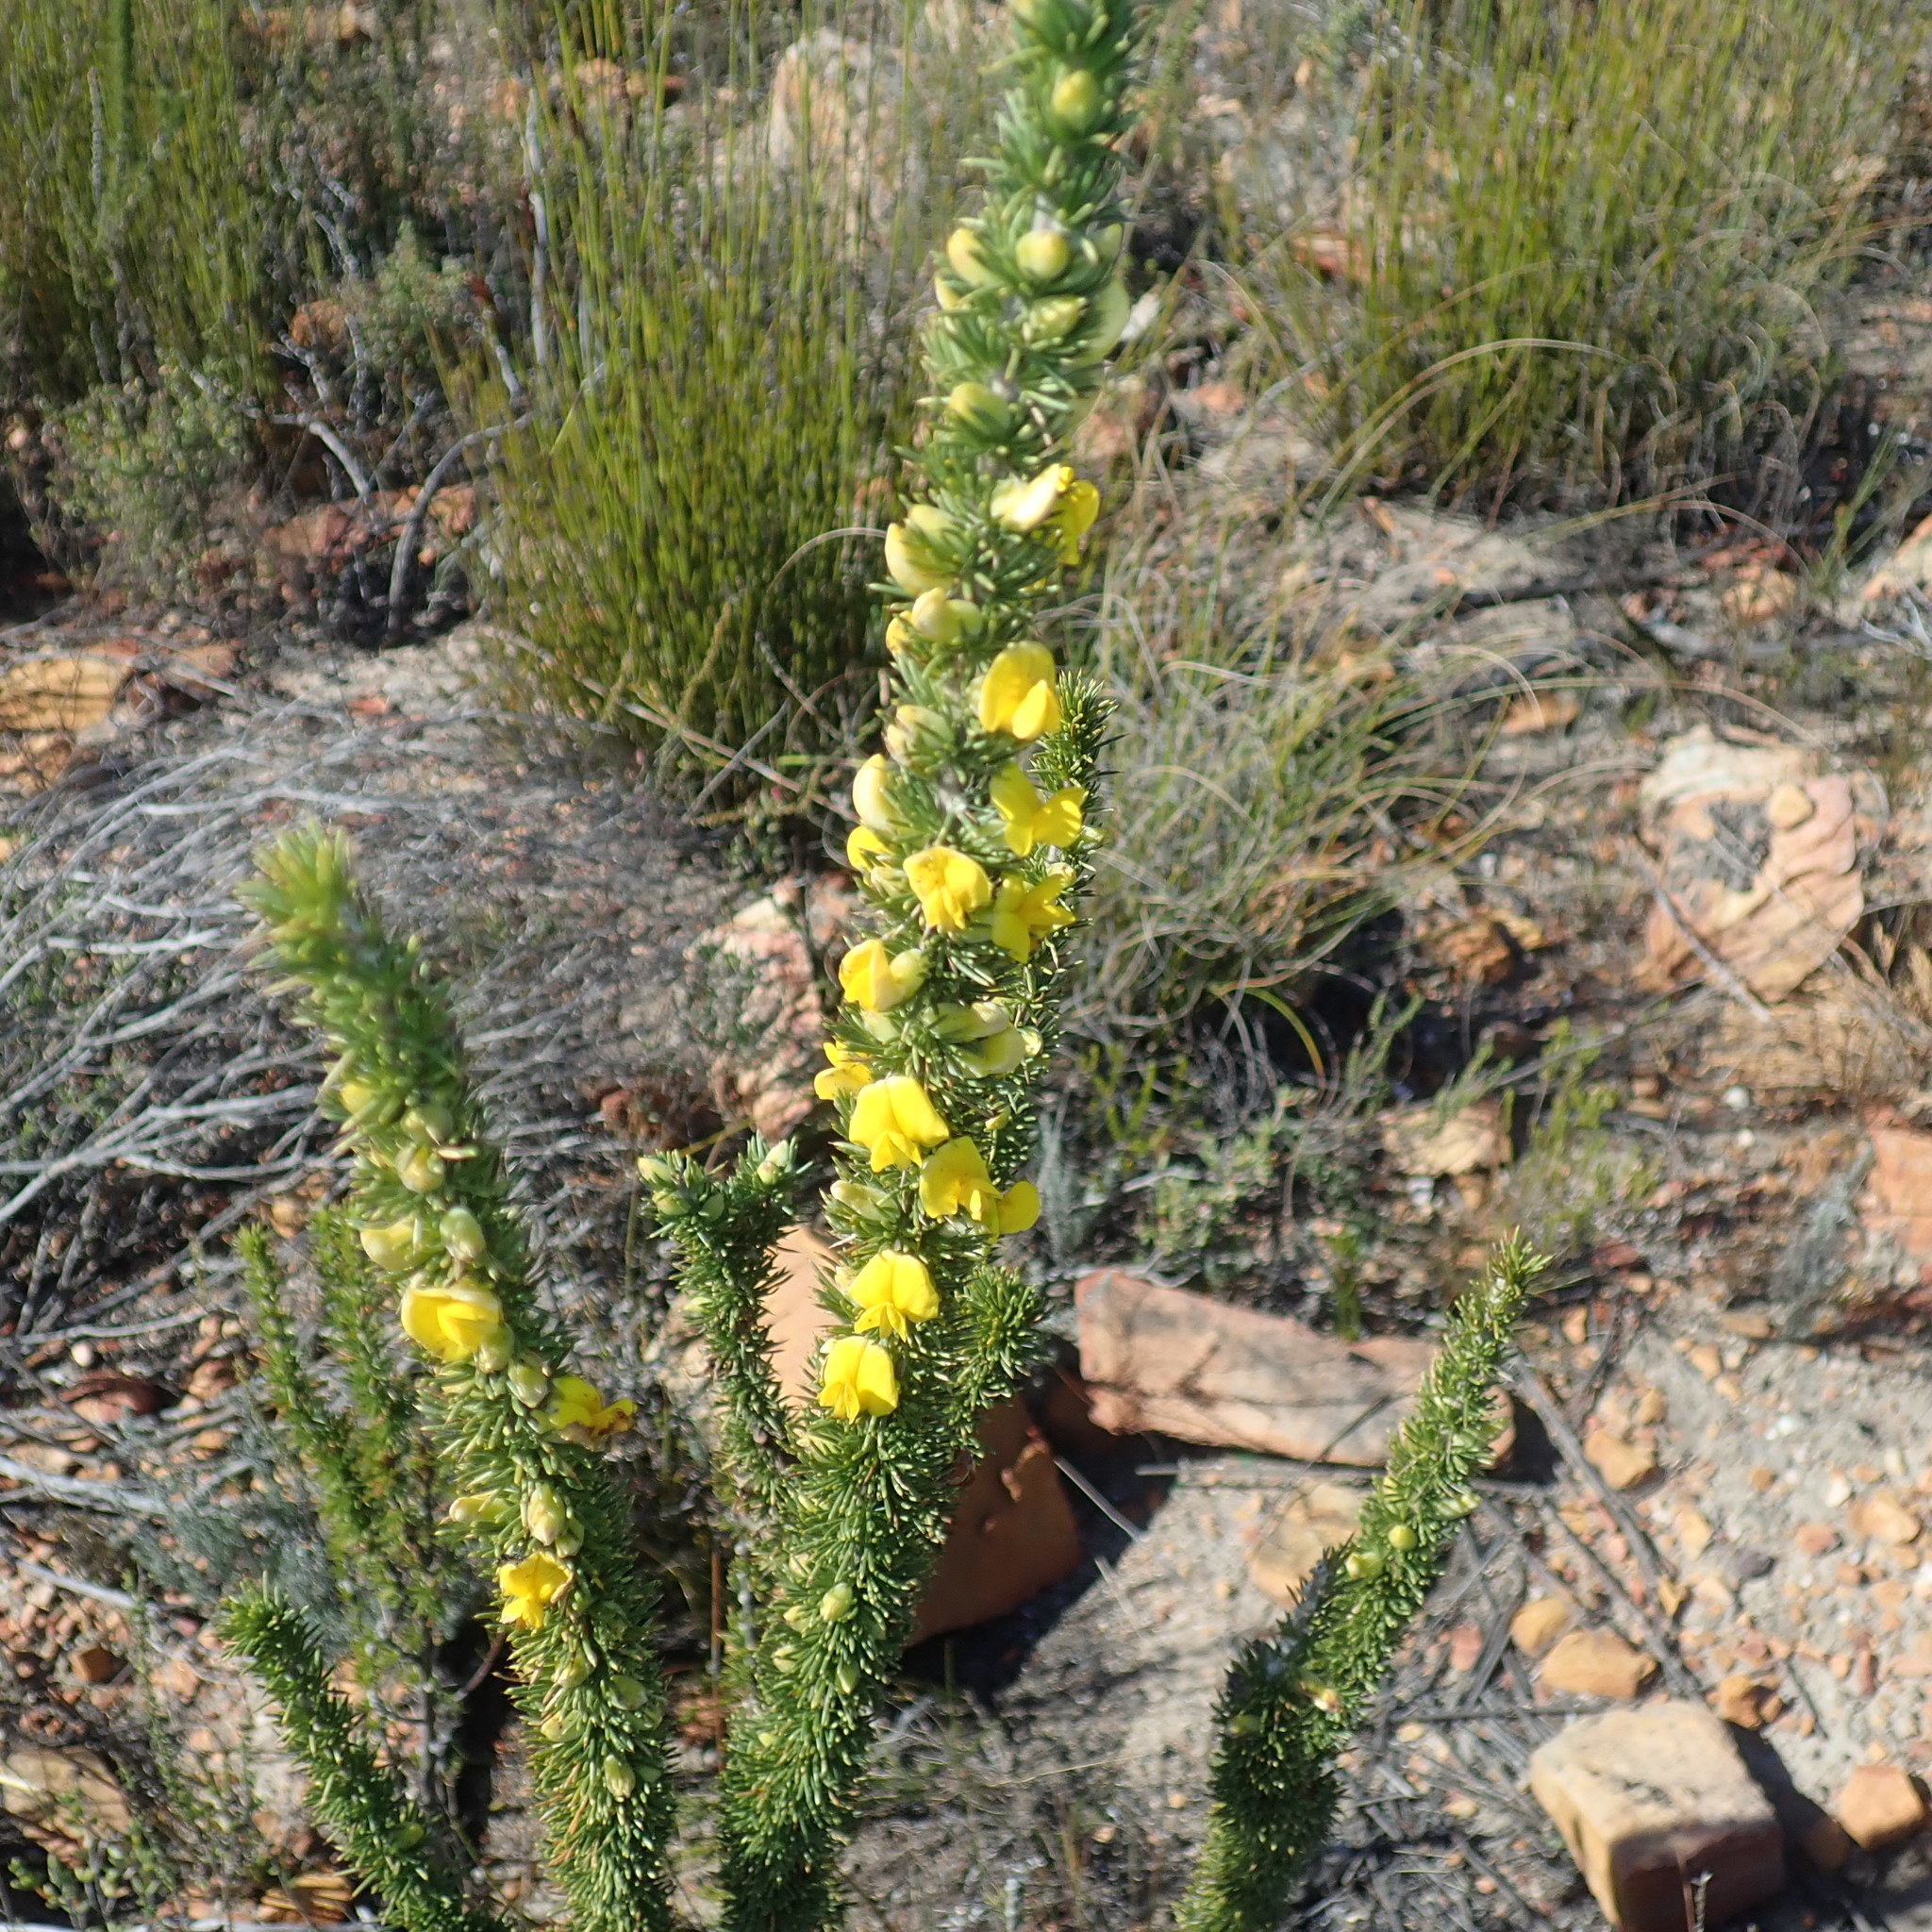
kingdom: Plantae
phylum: Tracheophyta
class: Magnoliopsida
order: Fabales
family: Fabaceae
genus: Aspalathus
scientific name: Aspalathus sceptrumaureum
